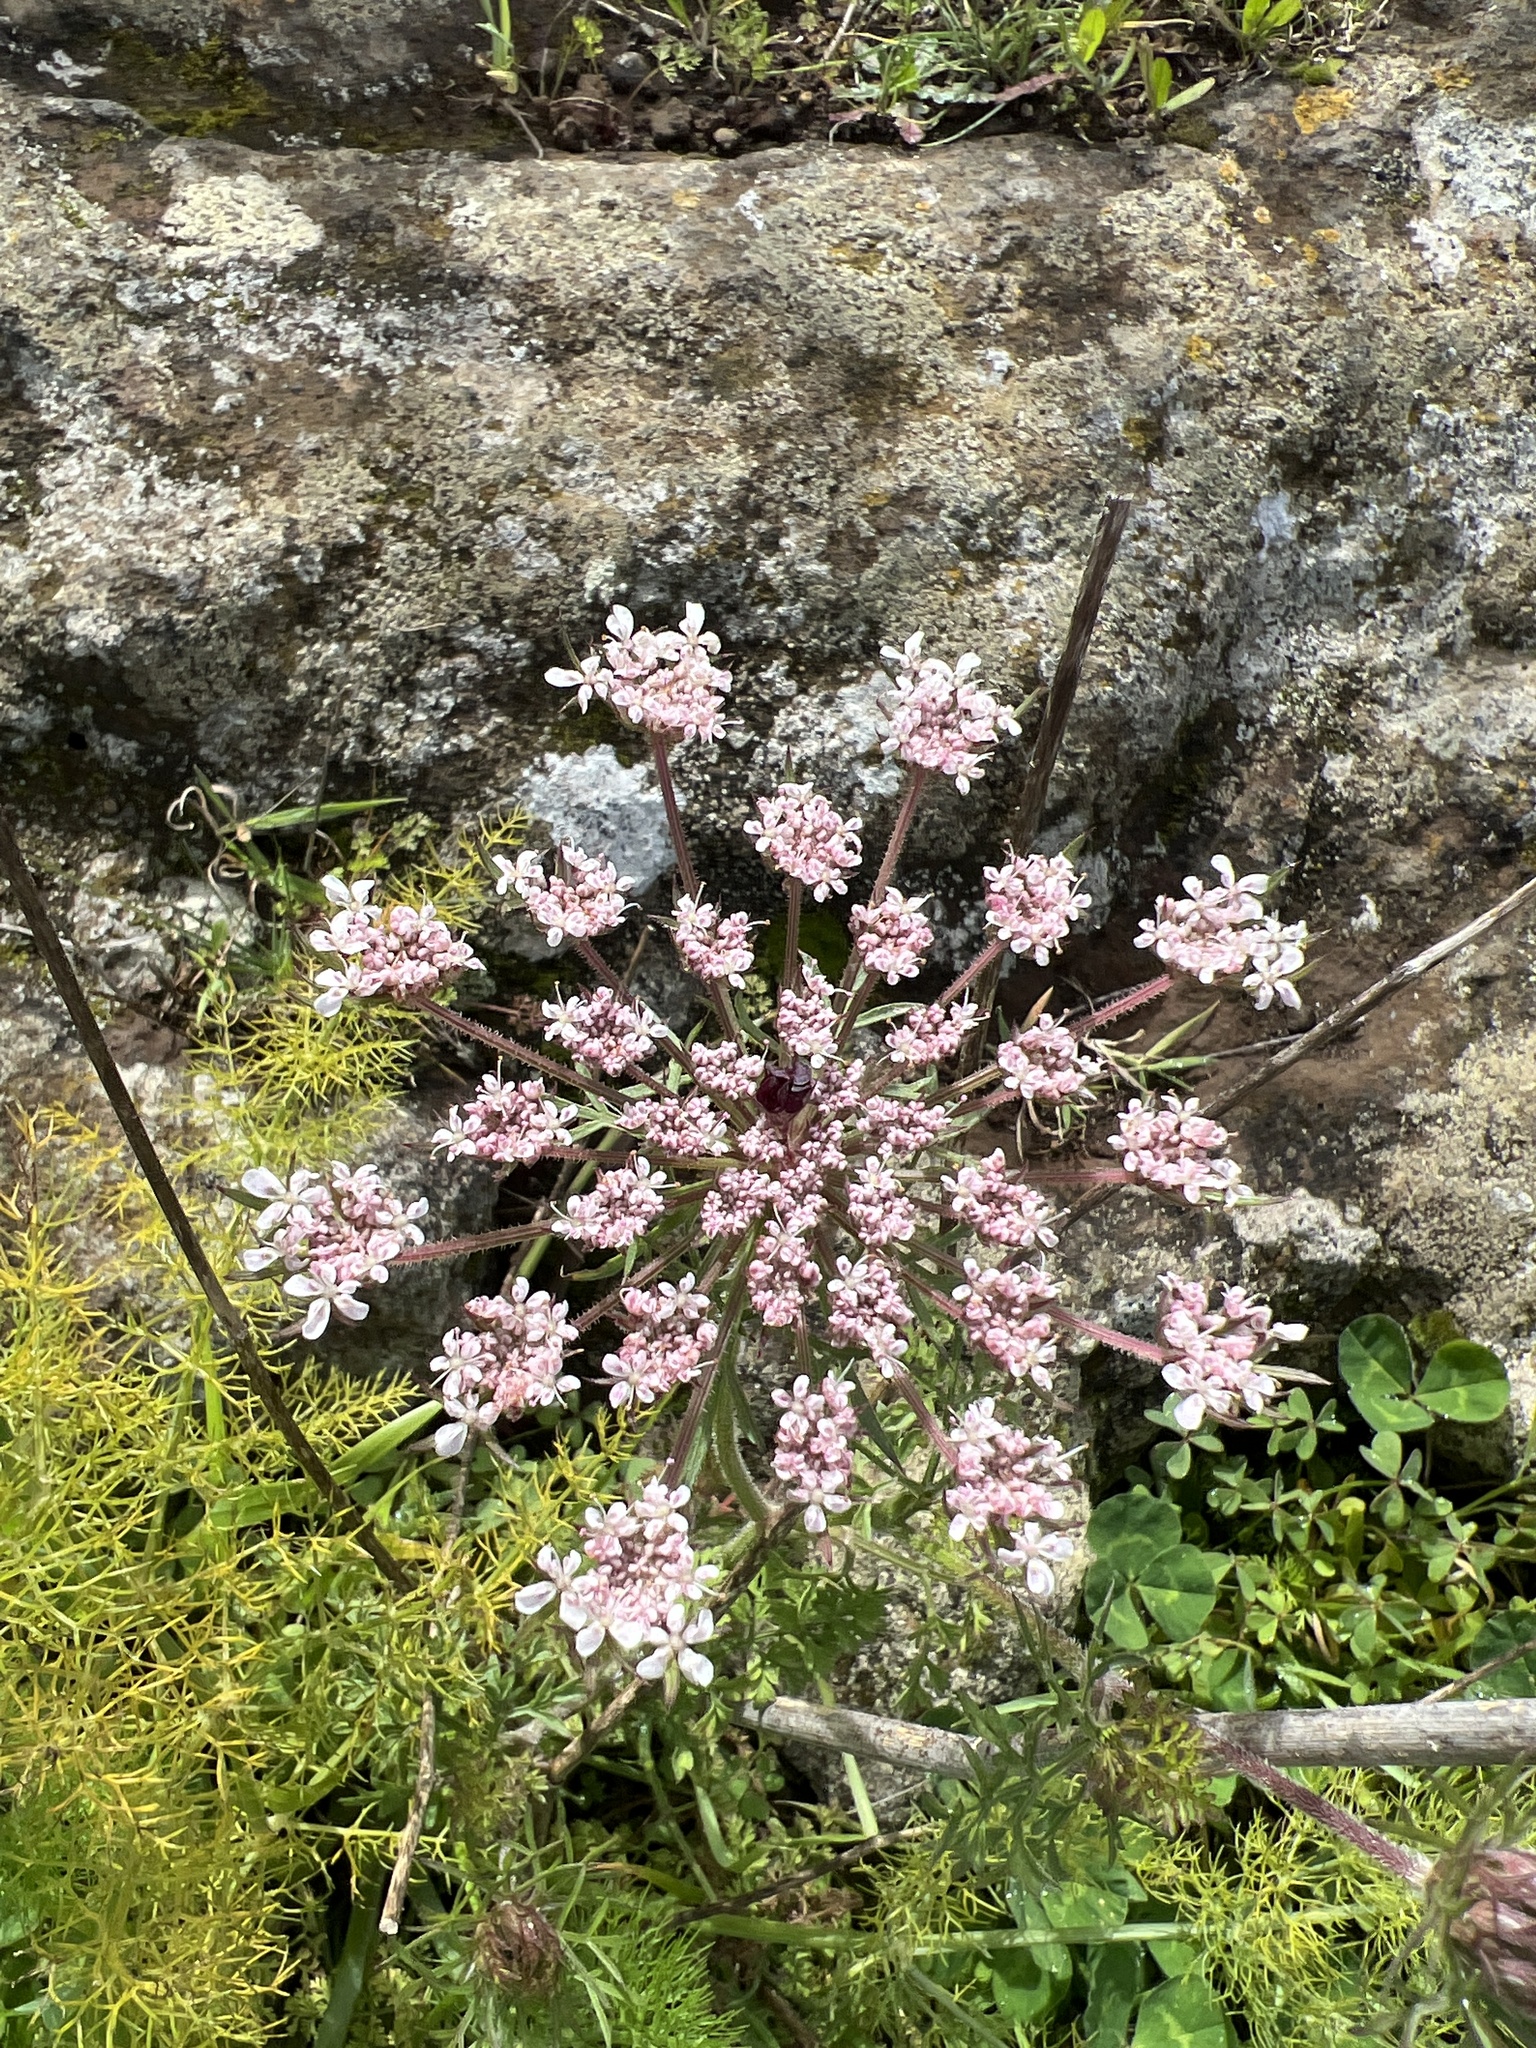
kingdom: Plantae
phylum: Tracheophyta
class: Magnoliopsida
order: Apiales
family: Apiaceae
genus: Daucus
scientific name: Daucus carota
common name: Wild carrot
